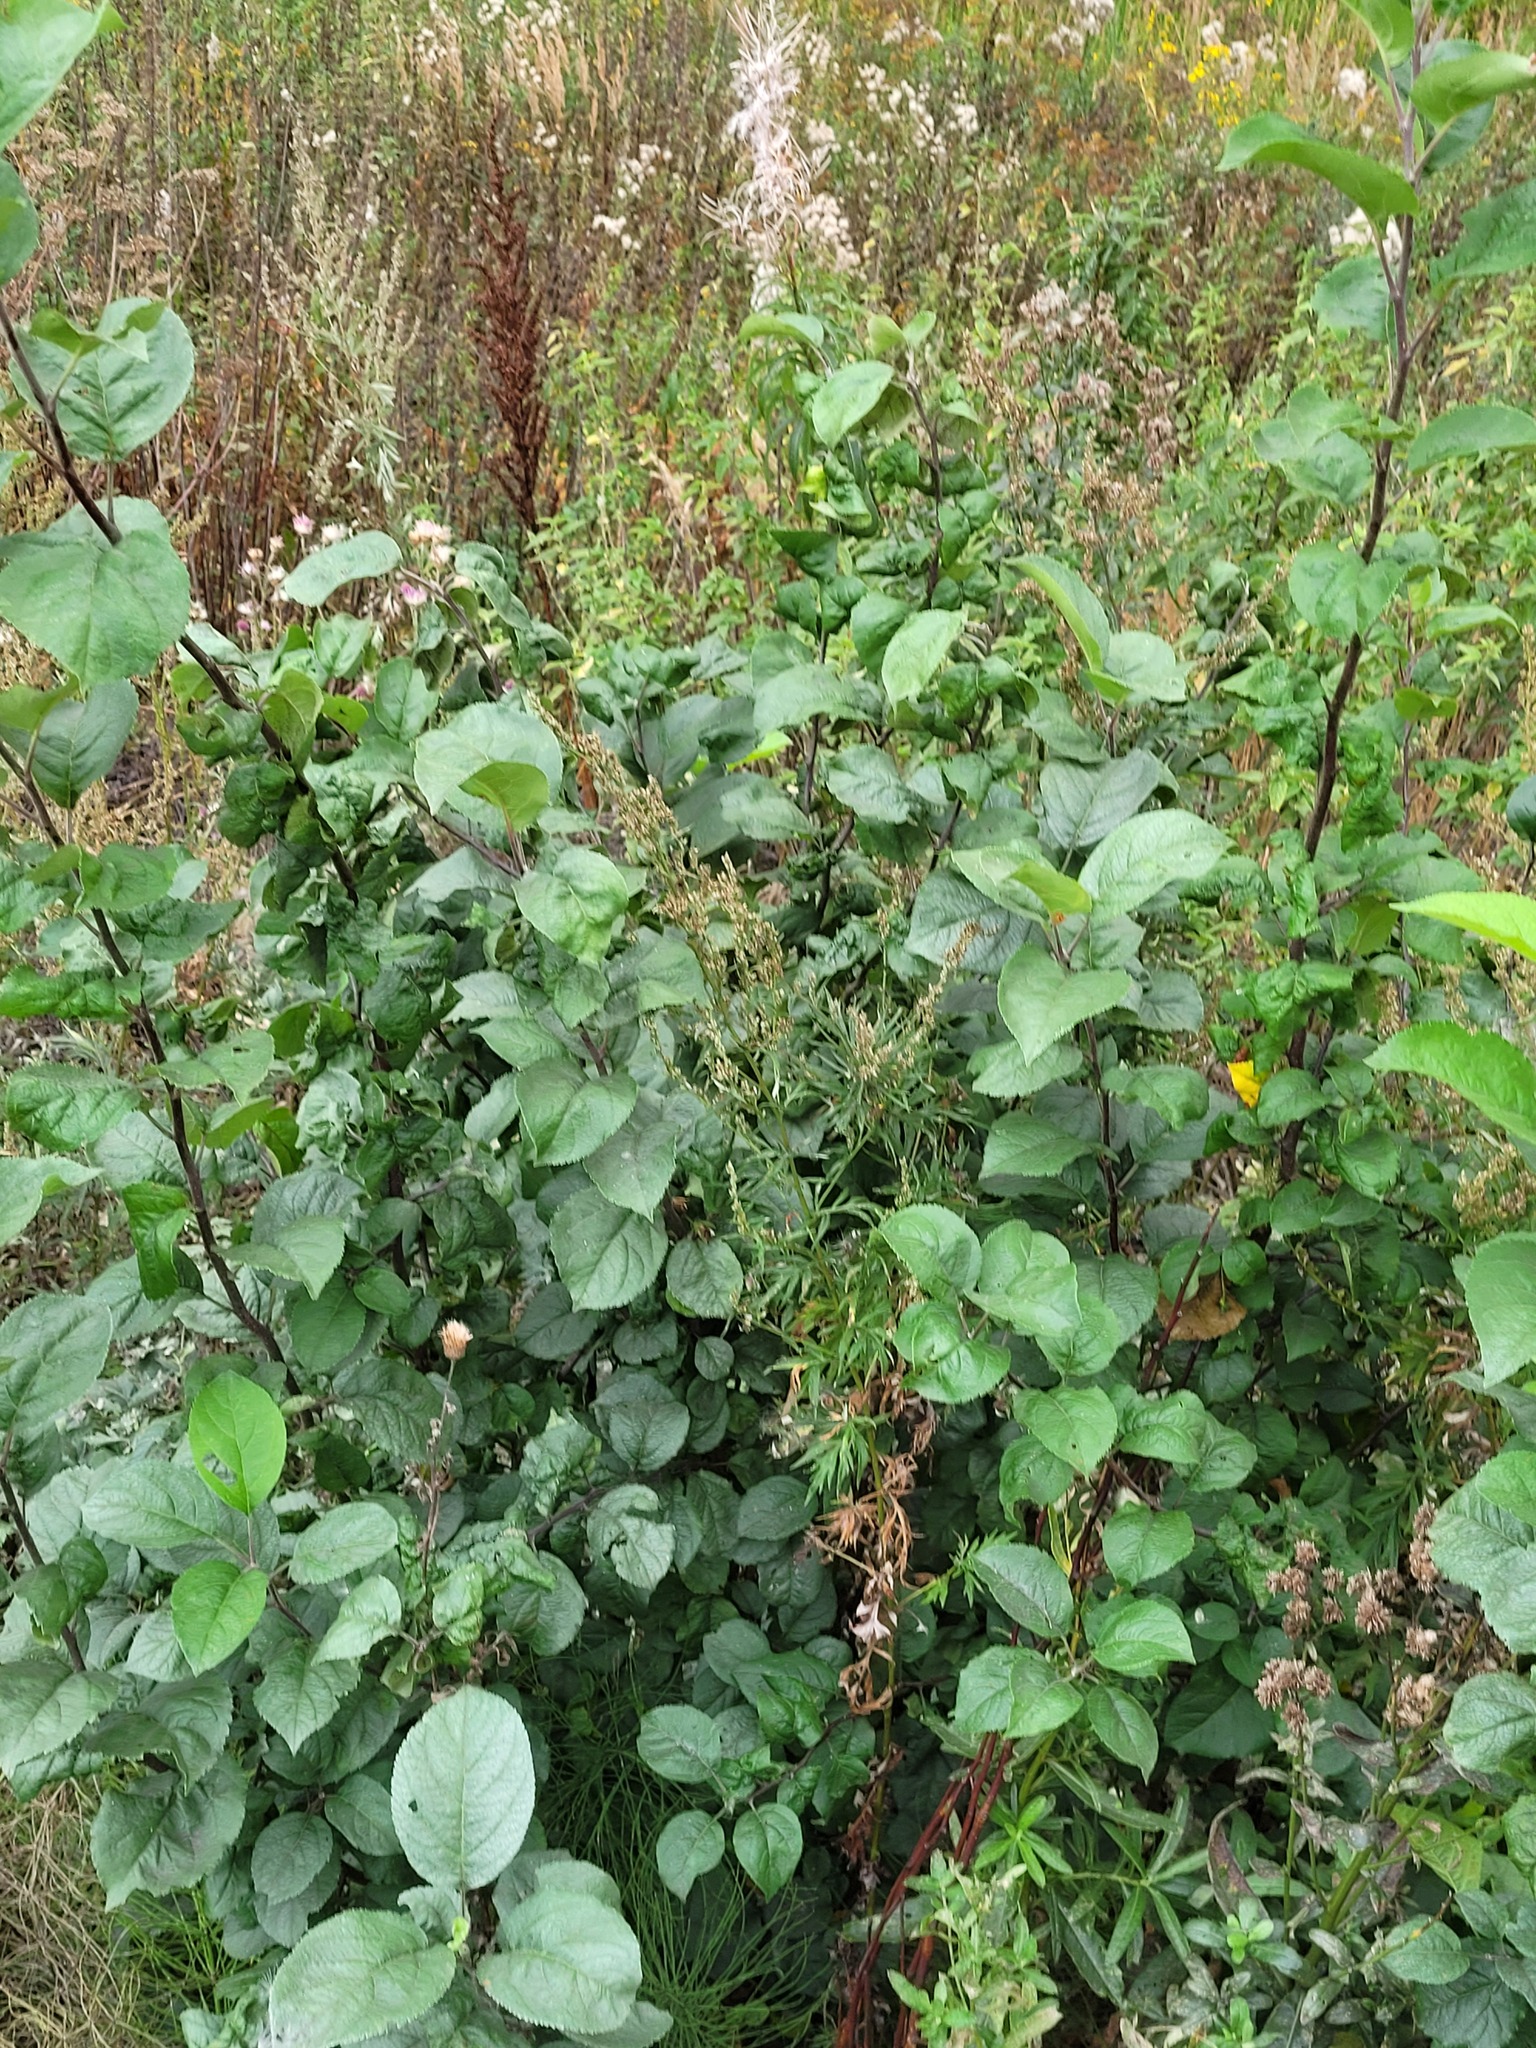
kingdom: Plantae
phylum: Tracheophyta
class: Magnoliopsida
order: Rosales
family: Rosaceae
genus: Malus
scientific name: Malus domestica
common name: Apple
